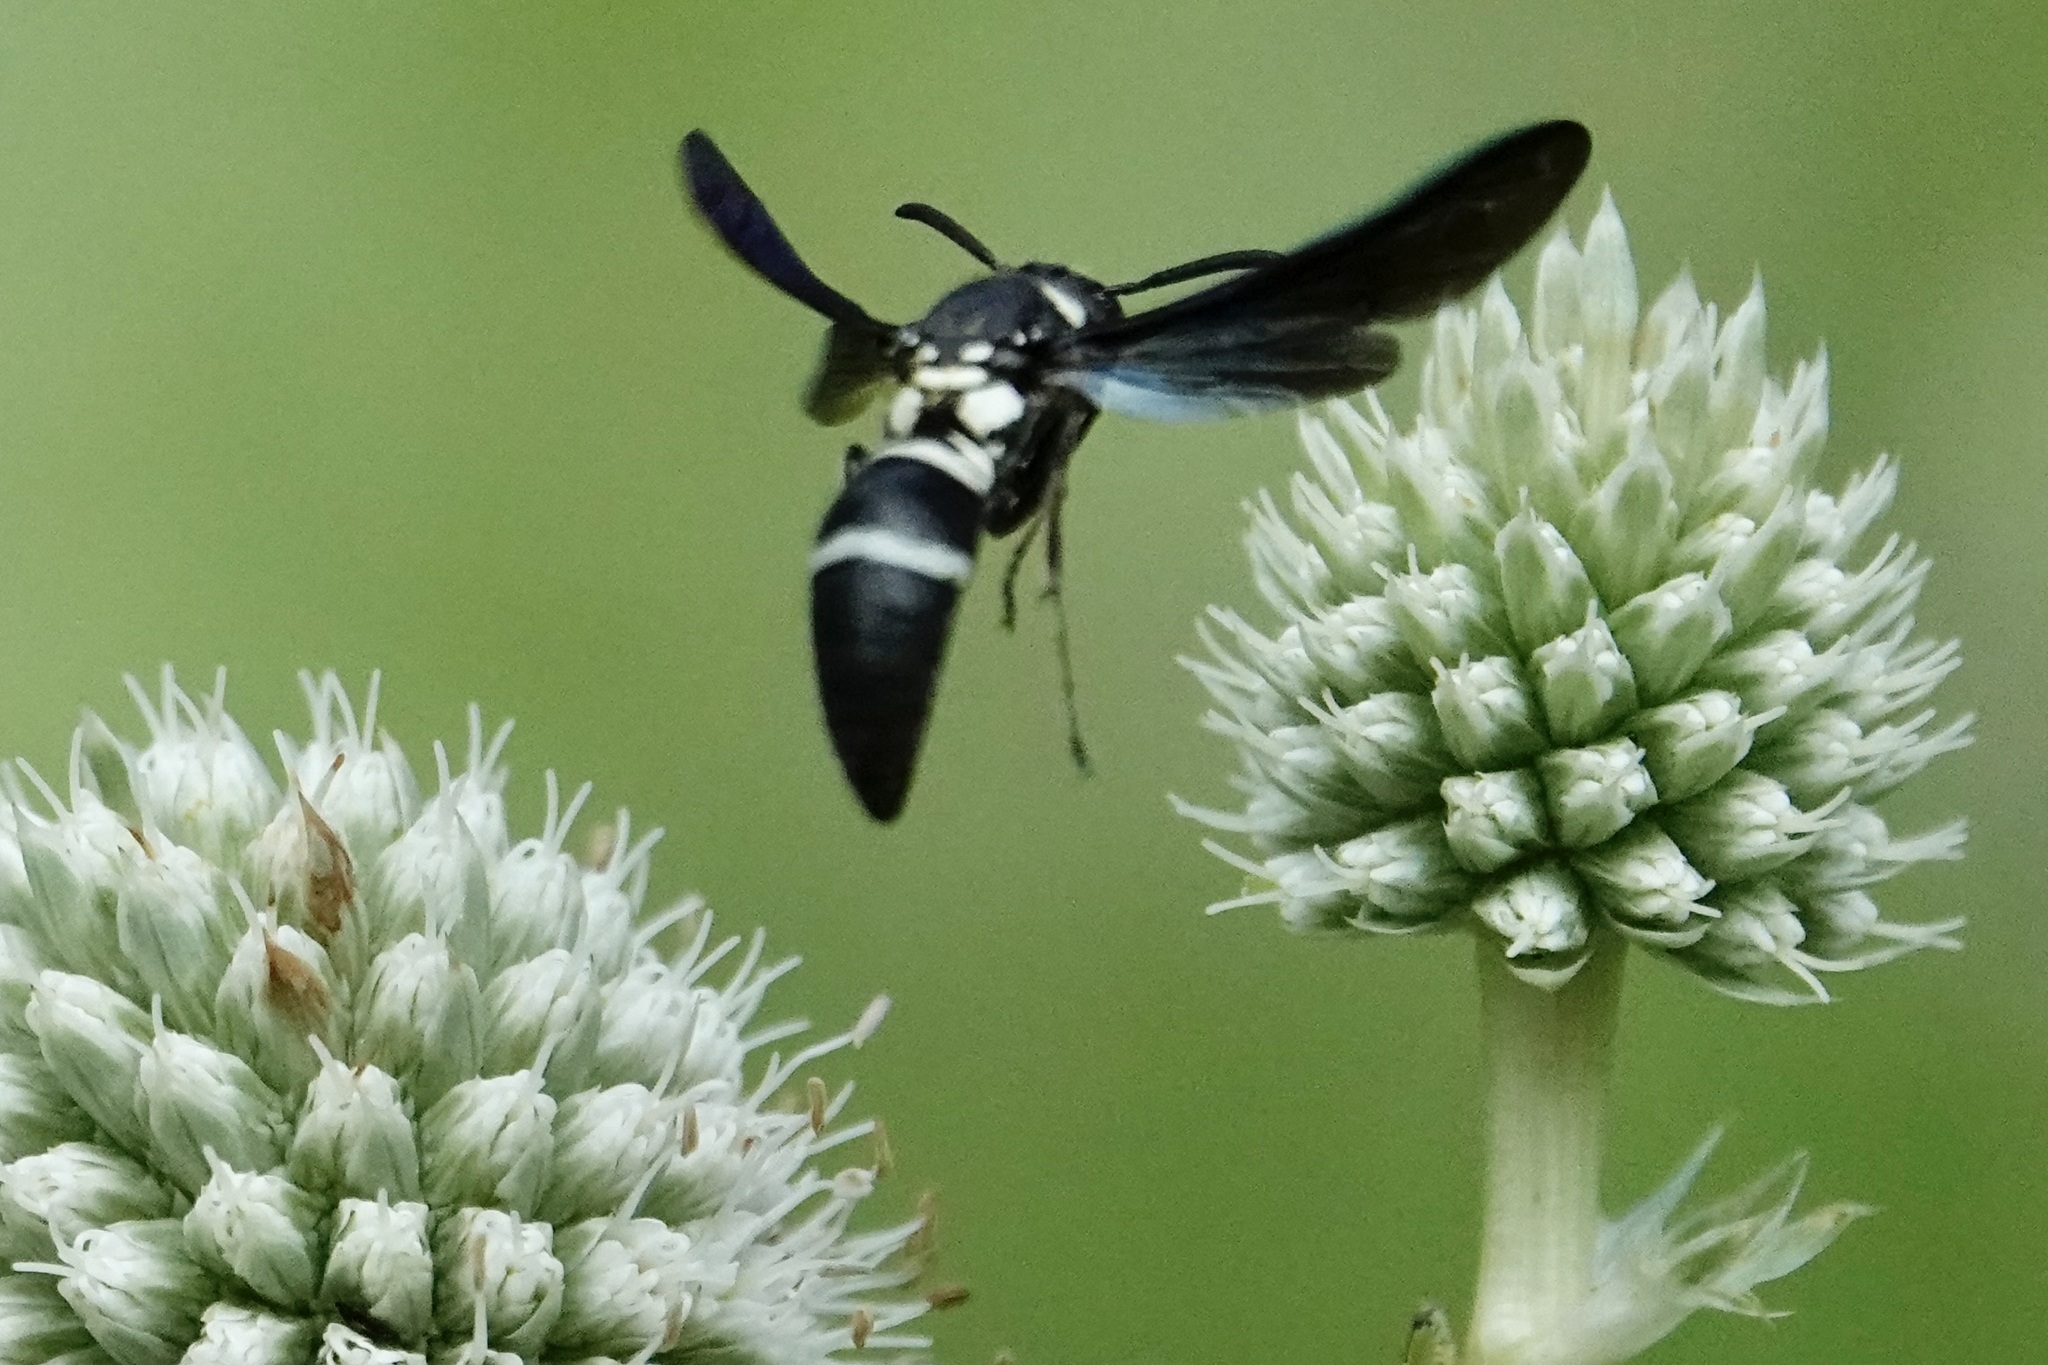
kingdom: Animalia
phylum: Arthropoda
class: Insecta
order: Hymenoptera
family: Eumenidae
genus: Pseudodynerus
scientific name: Pseudodynerus quadrisectus
